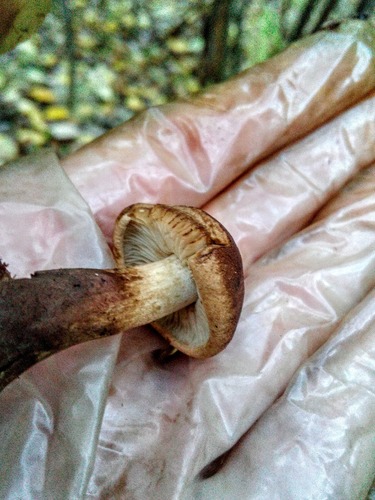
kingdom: Fungi
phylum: Basidiomycota
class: Agaricomycetes
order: Agaricales
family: Tricholomataceae
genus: Tricholoma
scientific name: Tricholoma fulvum
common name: Birch knight
